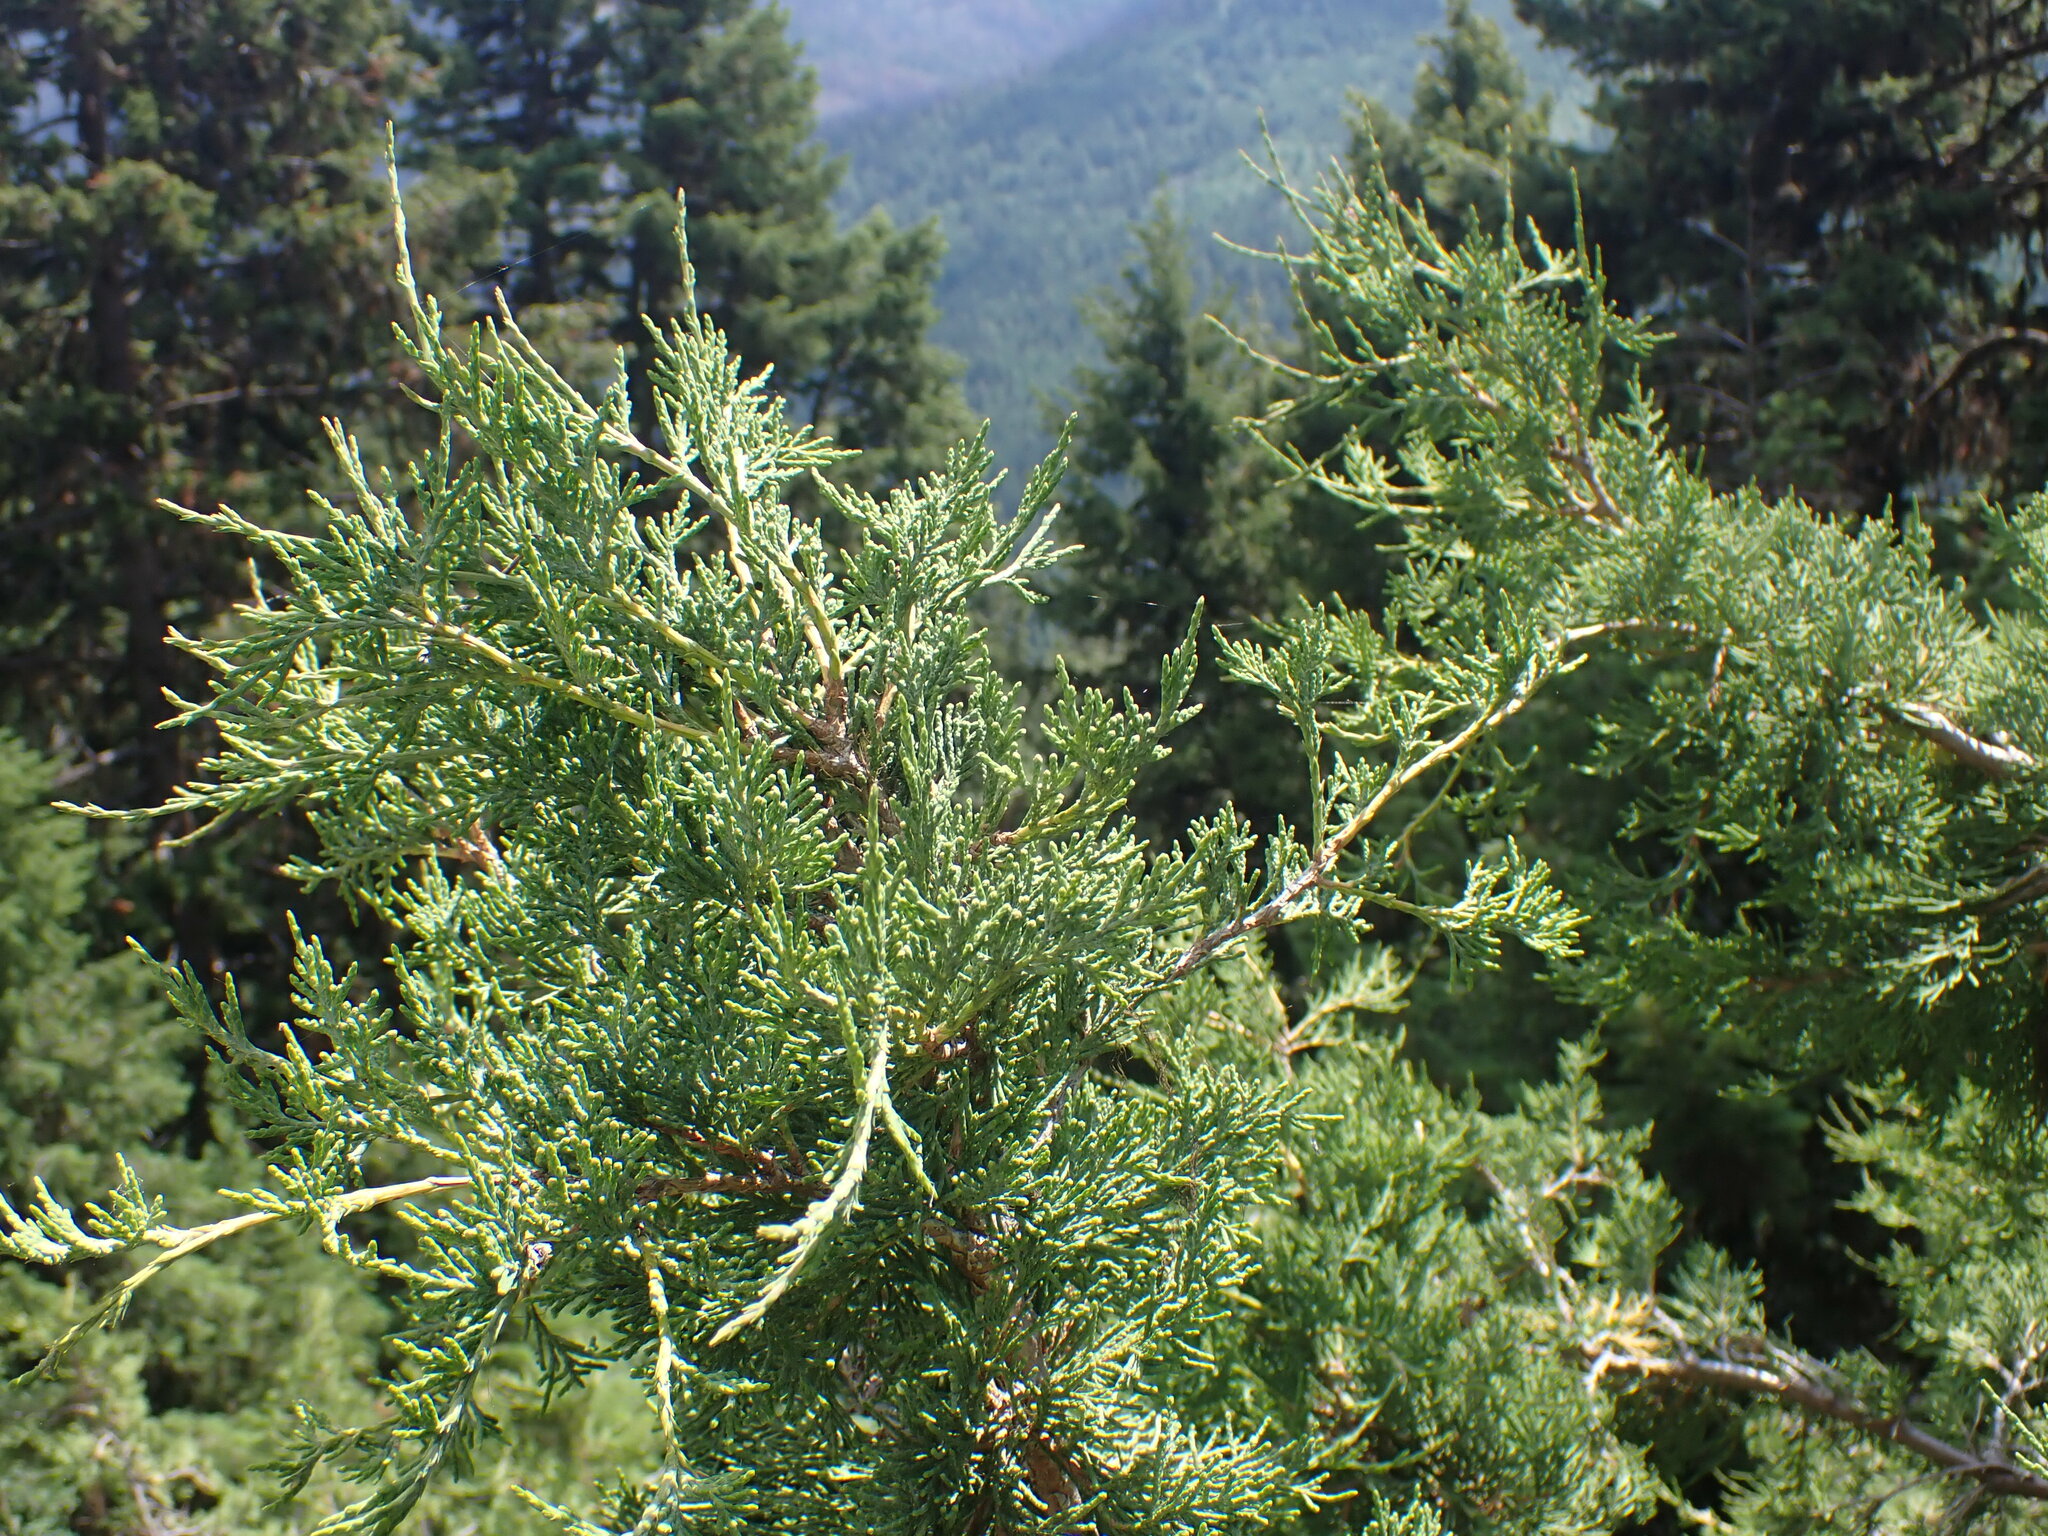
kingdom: Plantae
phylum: Tracheophyta
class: Pinopsida
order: Pinales
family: Cupressaceae
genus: Juniperus
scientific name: Juniperus scopulorum
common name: Rocky mountain juniper
